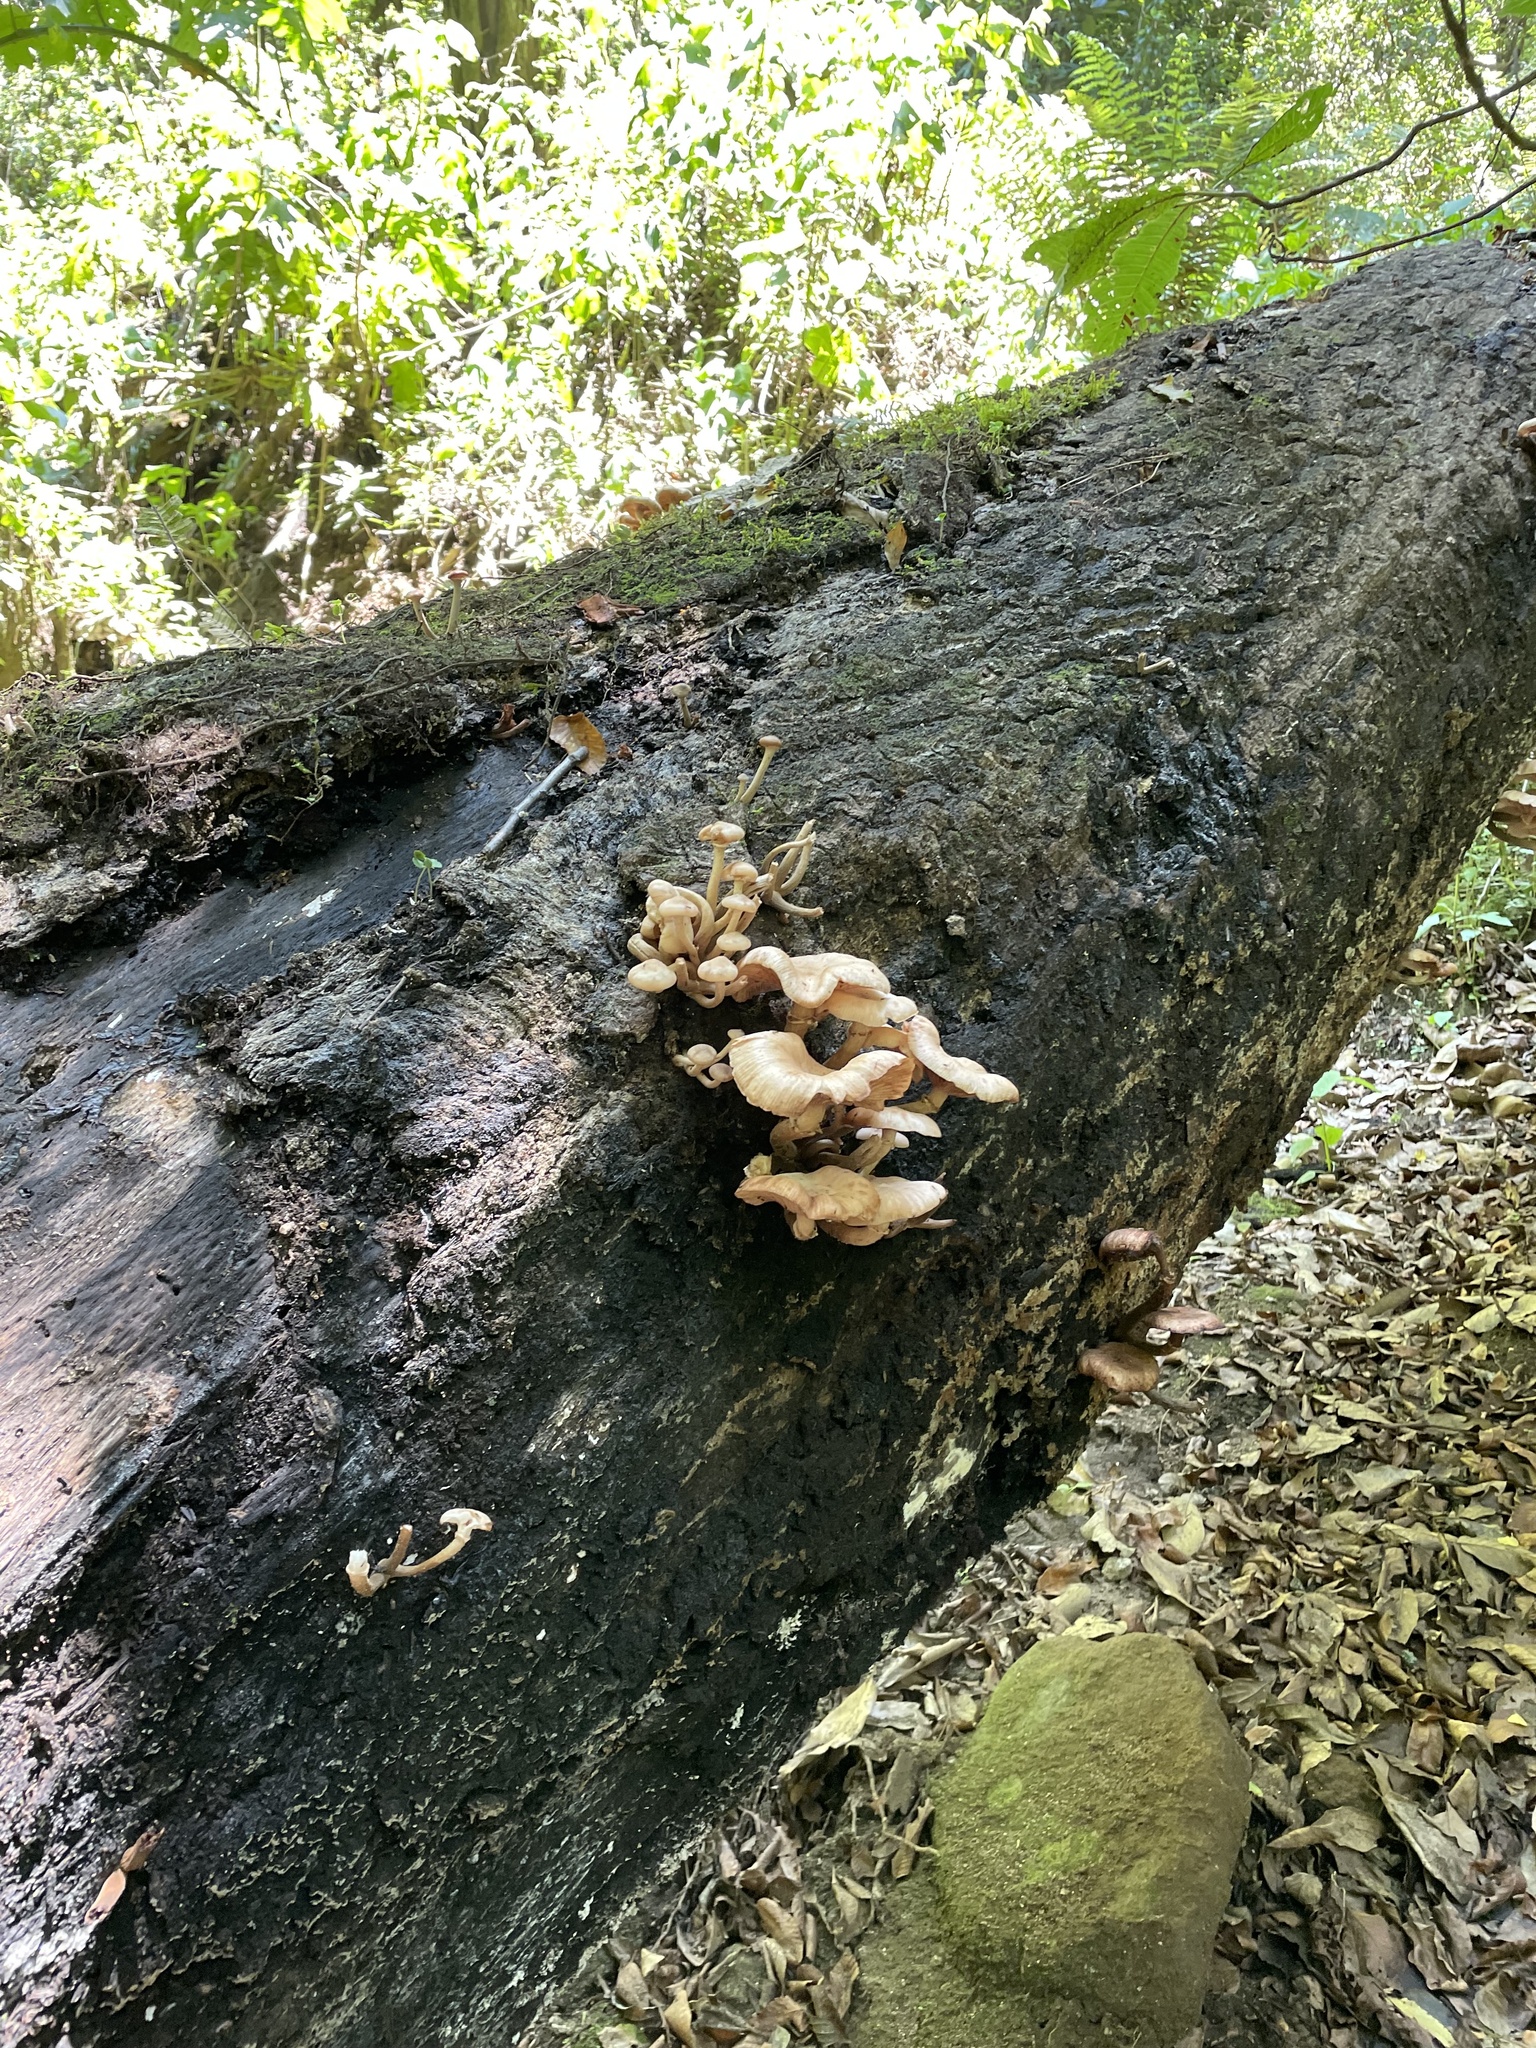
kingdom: Fungi
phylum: Basidiomycota
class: Agaricomycetes
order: Agaricales
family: Physalacriaceae
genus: Armillaria
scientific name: Armillaria mexicana
